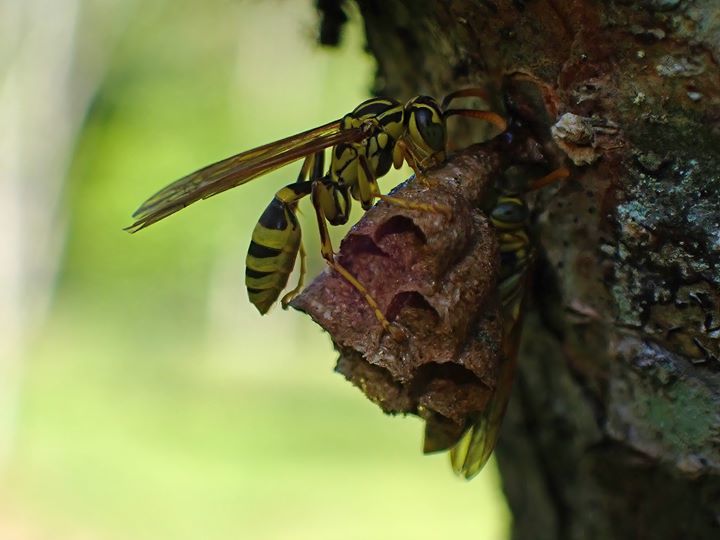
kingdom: Animalia
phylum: Arthropoda
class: Insecta
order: Hymenoptera
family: Vespidae
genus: Mischocyttarus
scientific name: Mischocyttarus basimacula
